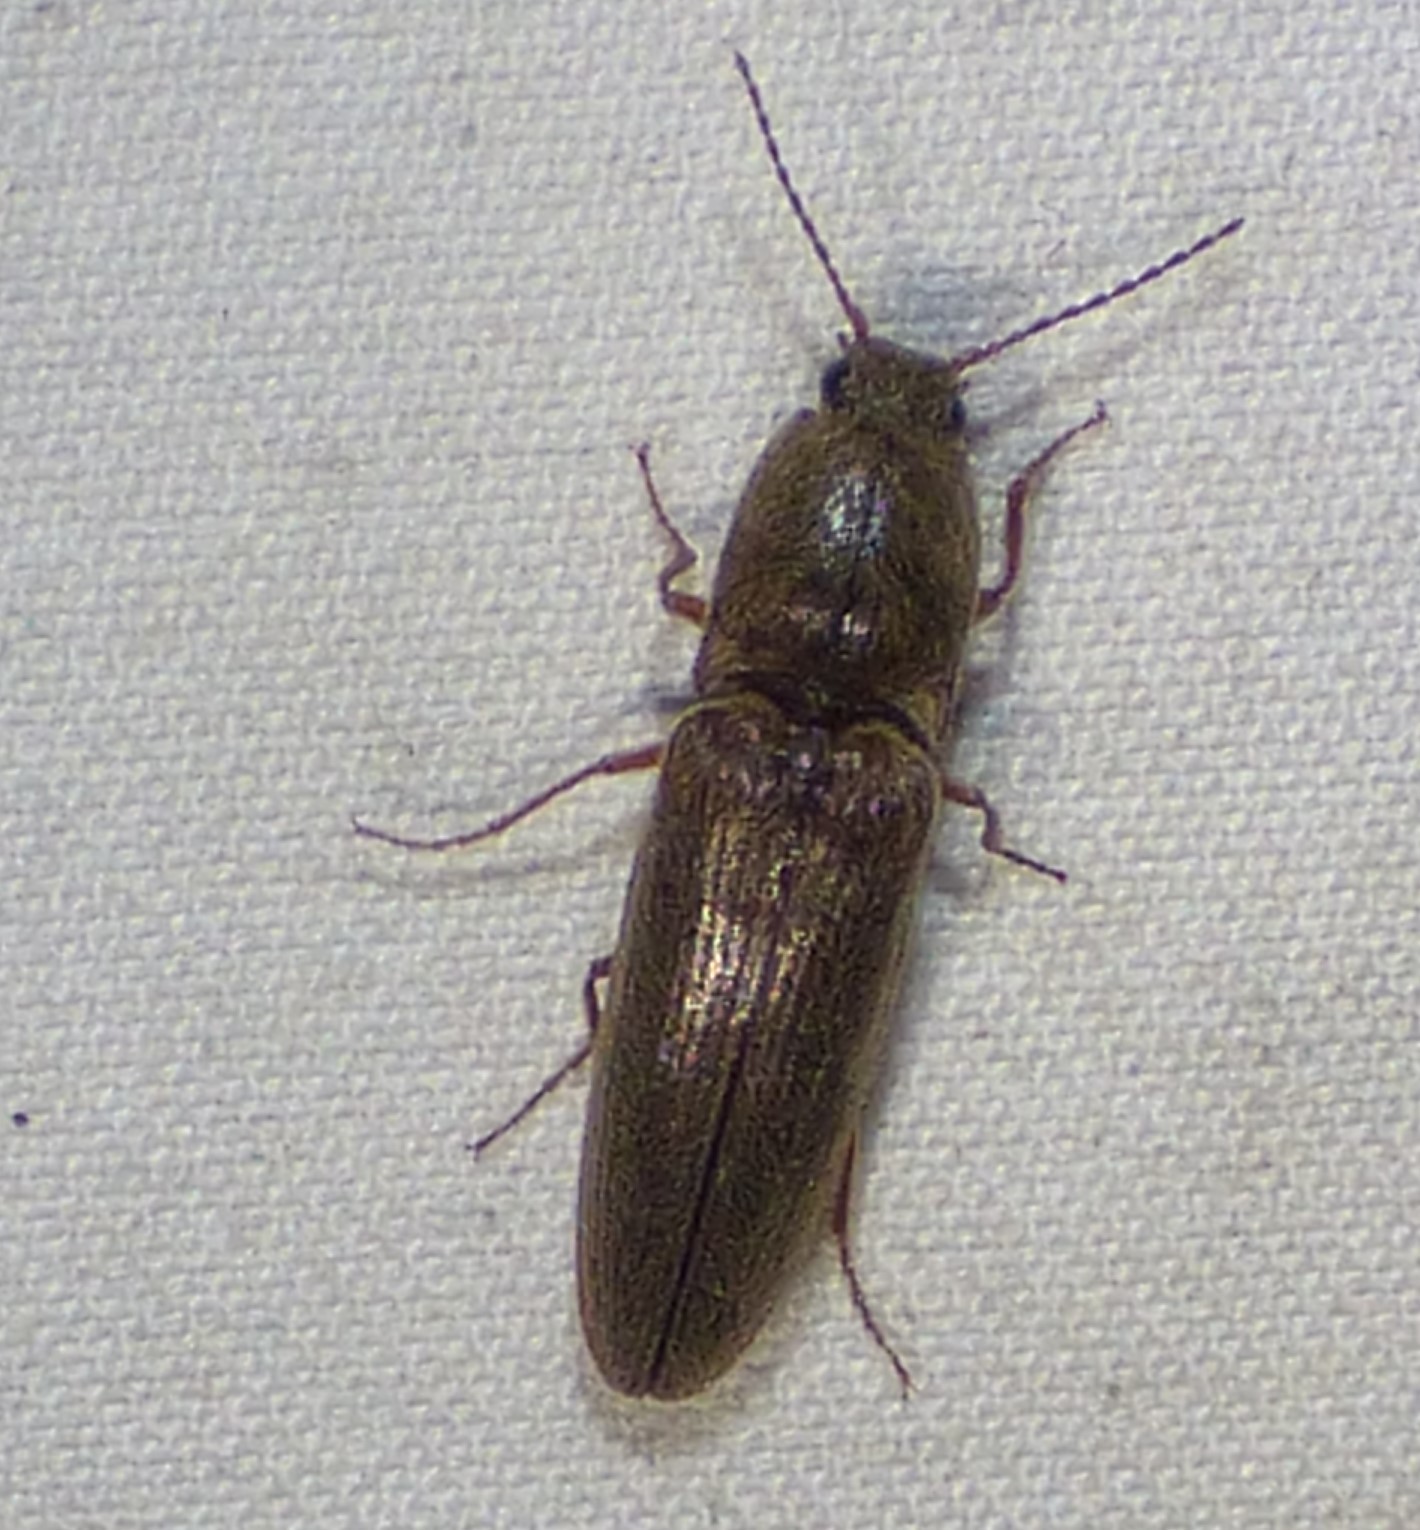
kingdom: Animalia
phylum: Arthropoda
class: Insecta
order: Coleoptera
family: Elateridae
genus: Gambrinus
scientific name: Gambrinus griseus
